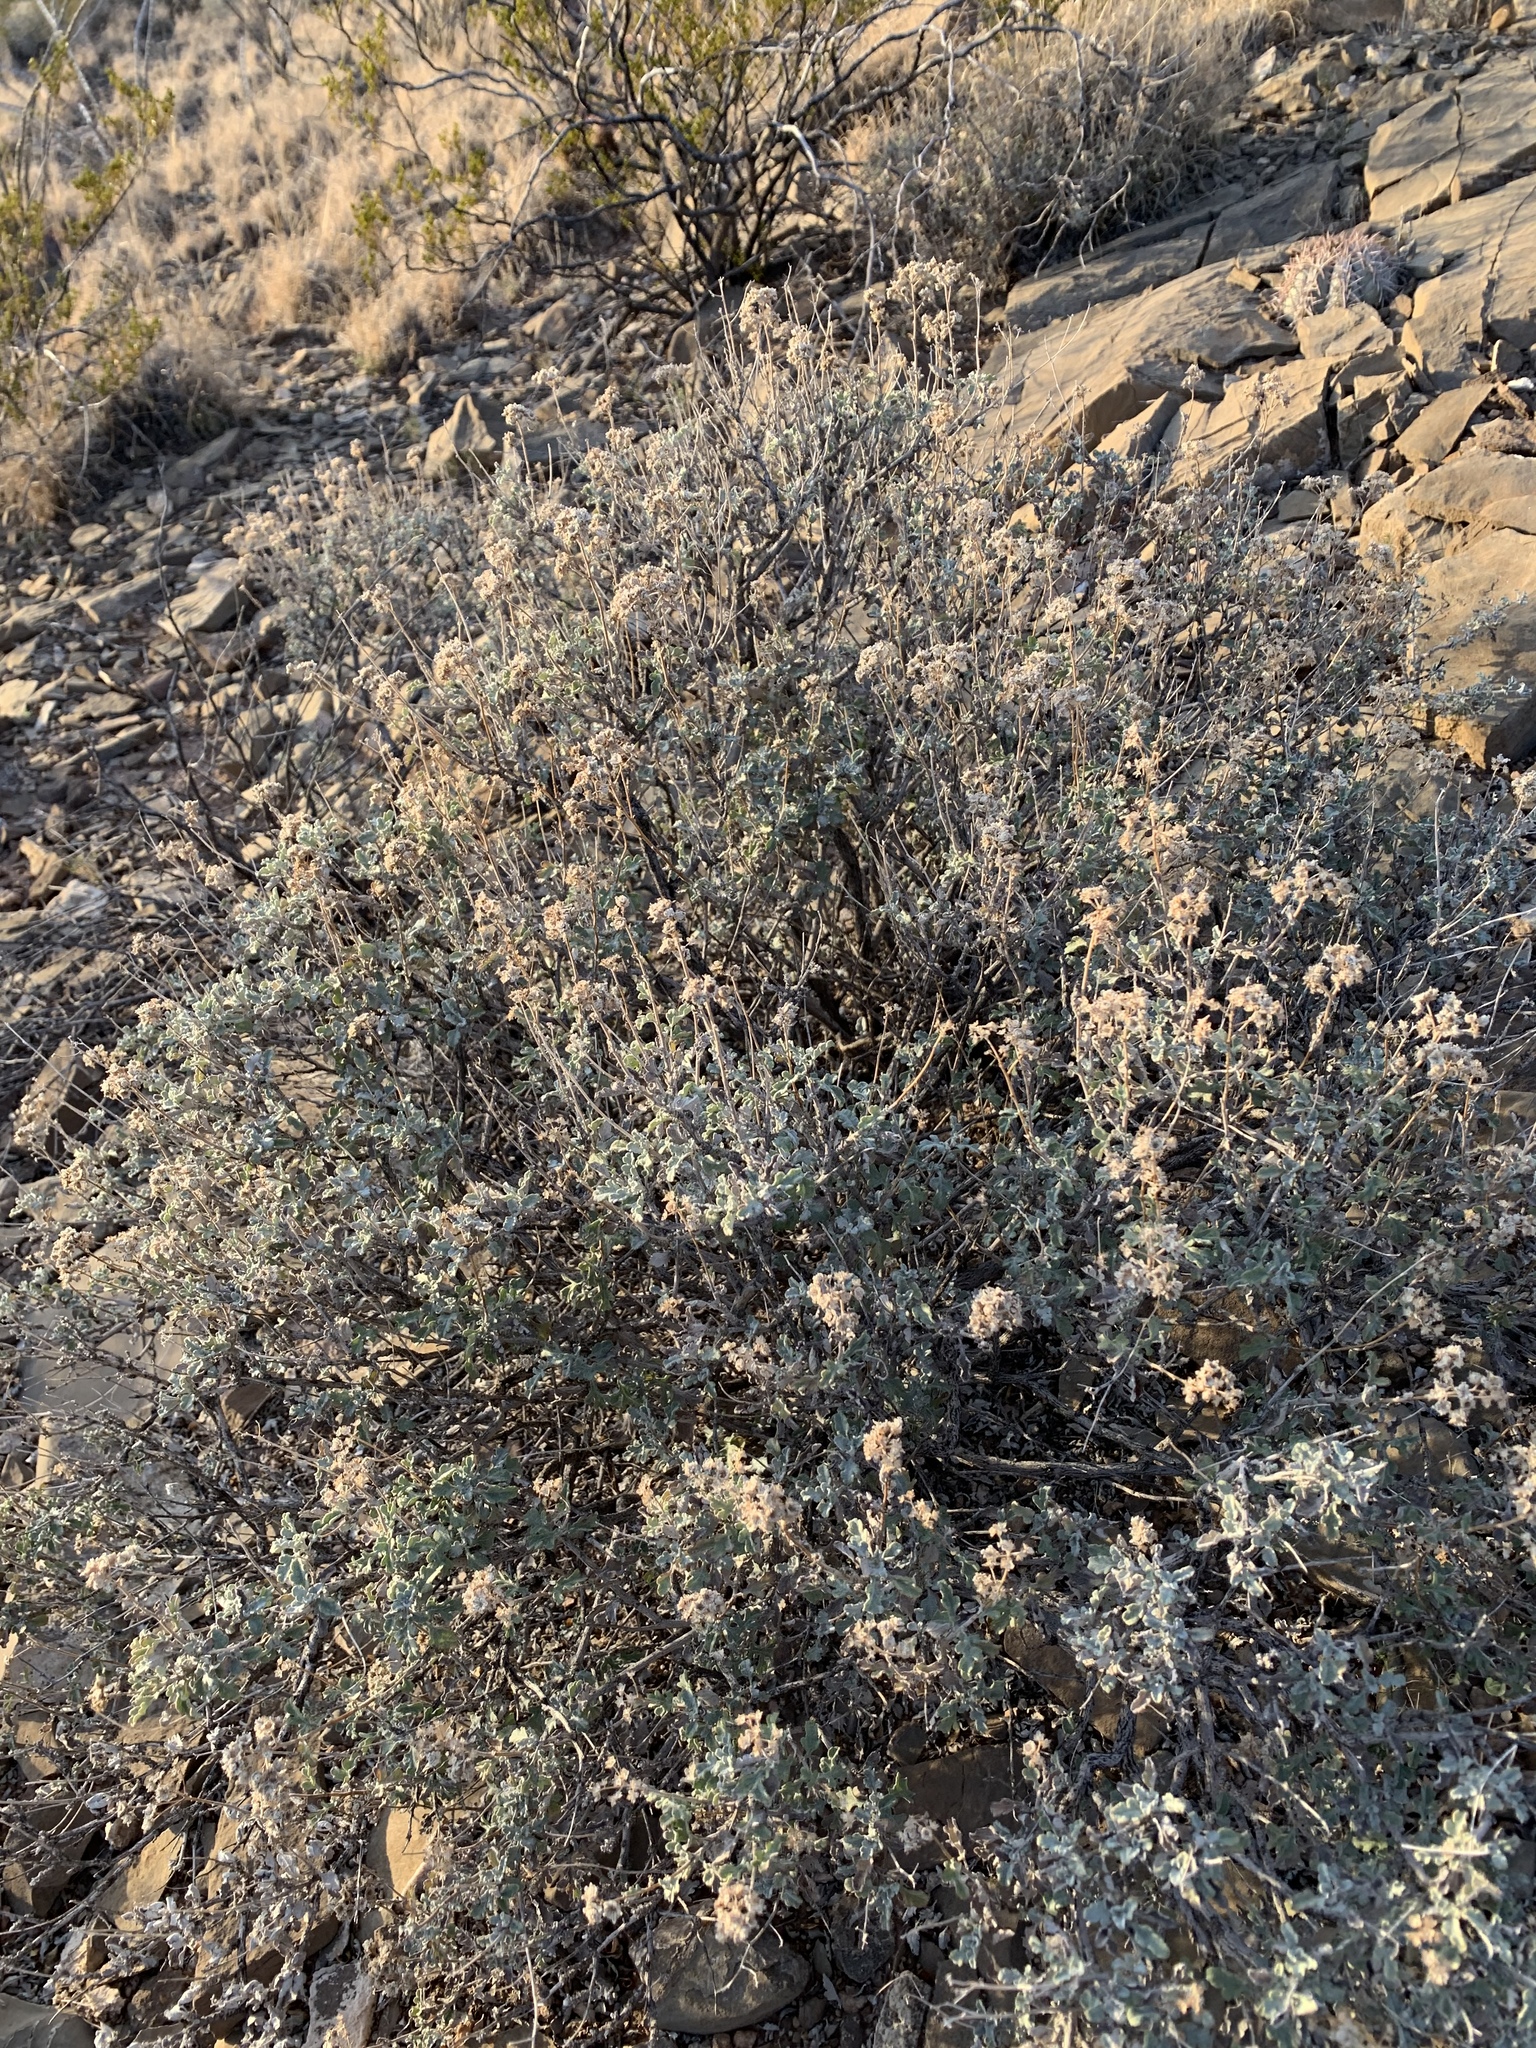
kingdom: Plantae
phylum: Tracheophyta
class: Magnoliopsida
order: Asterales
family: Asteraceae
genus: Parthenium
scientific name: Parthenium incanum
